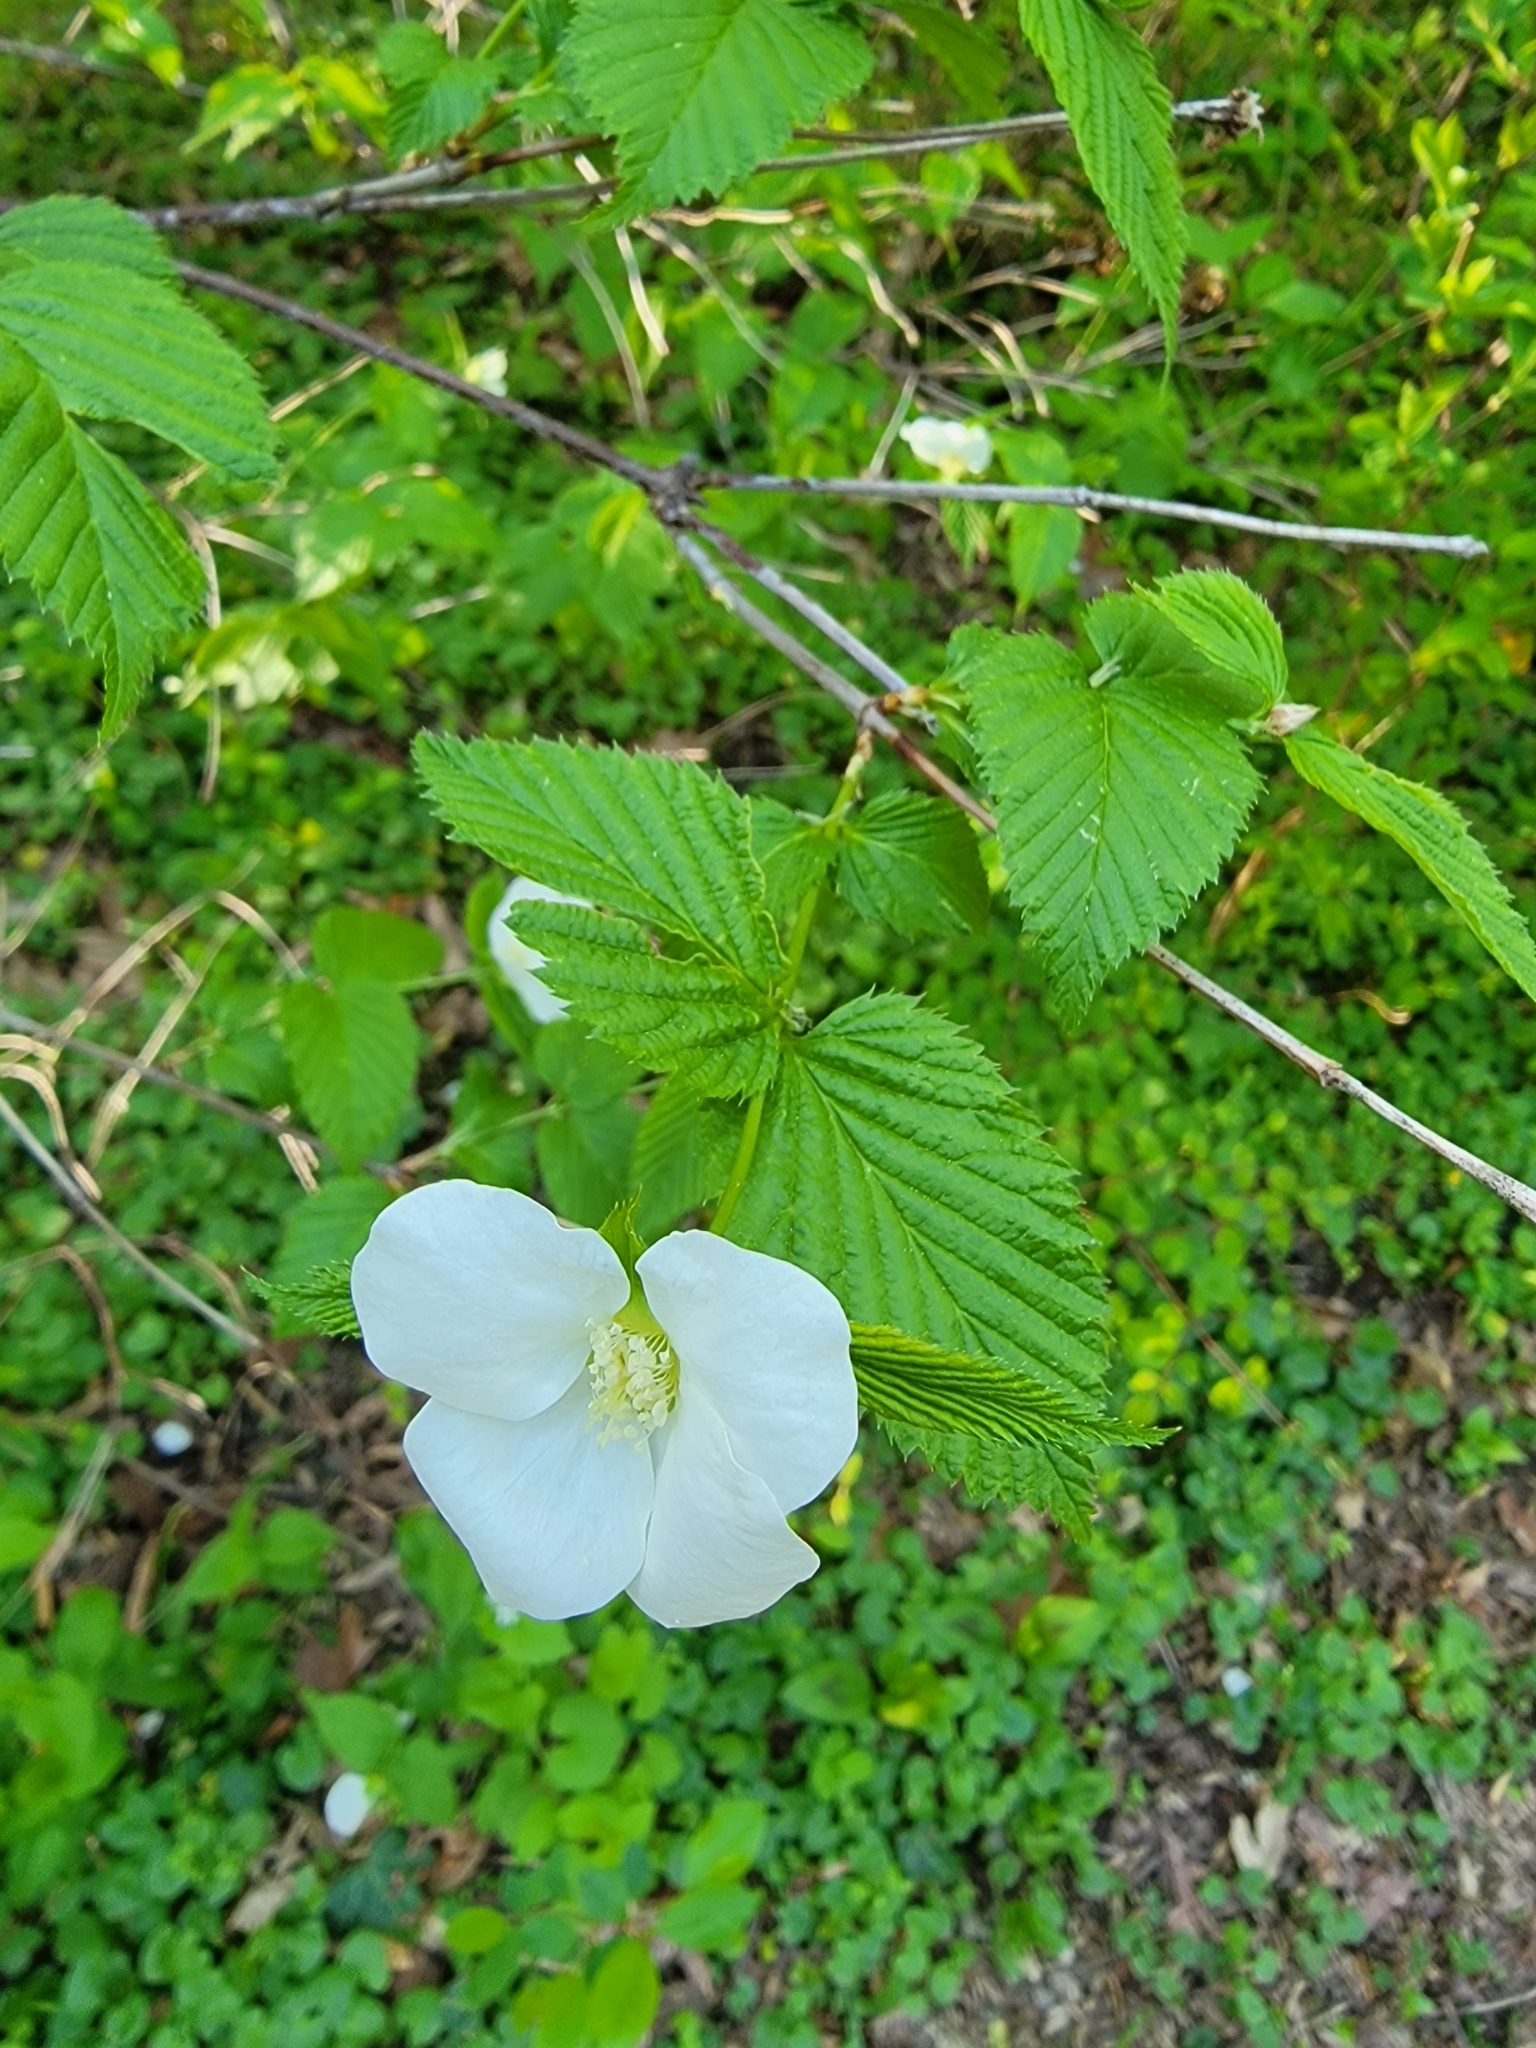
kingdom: Plantae
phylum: Tracheophyta
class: Magnoliopsida
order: Rosales
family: Rosaceae
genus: Rhodotypos
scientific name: Rhodotypos scandens
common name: Jetbead
